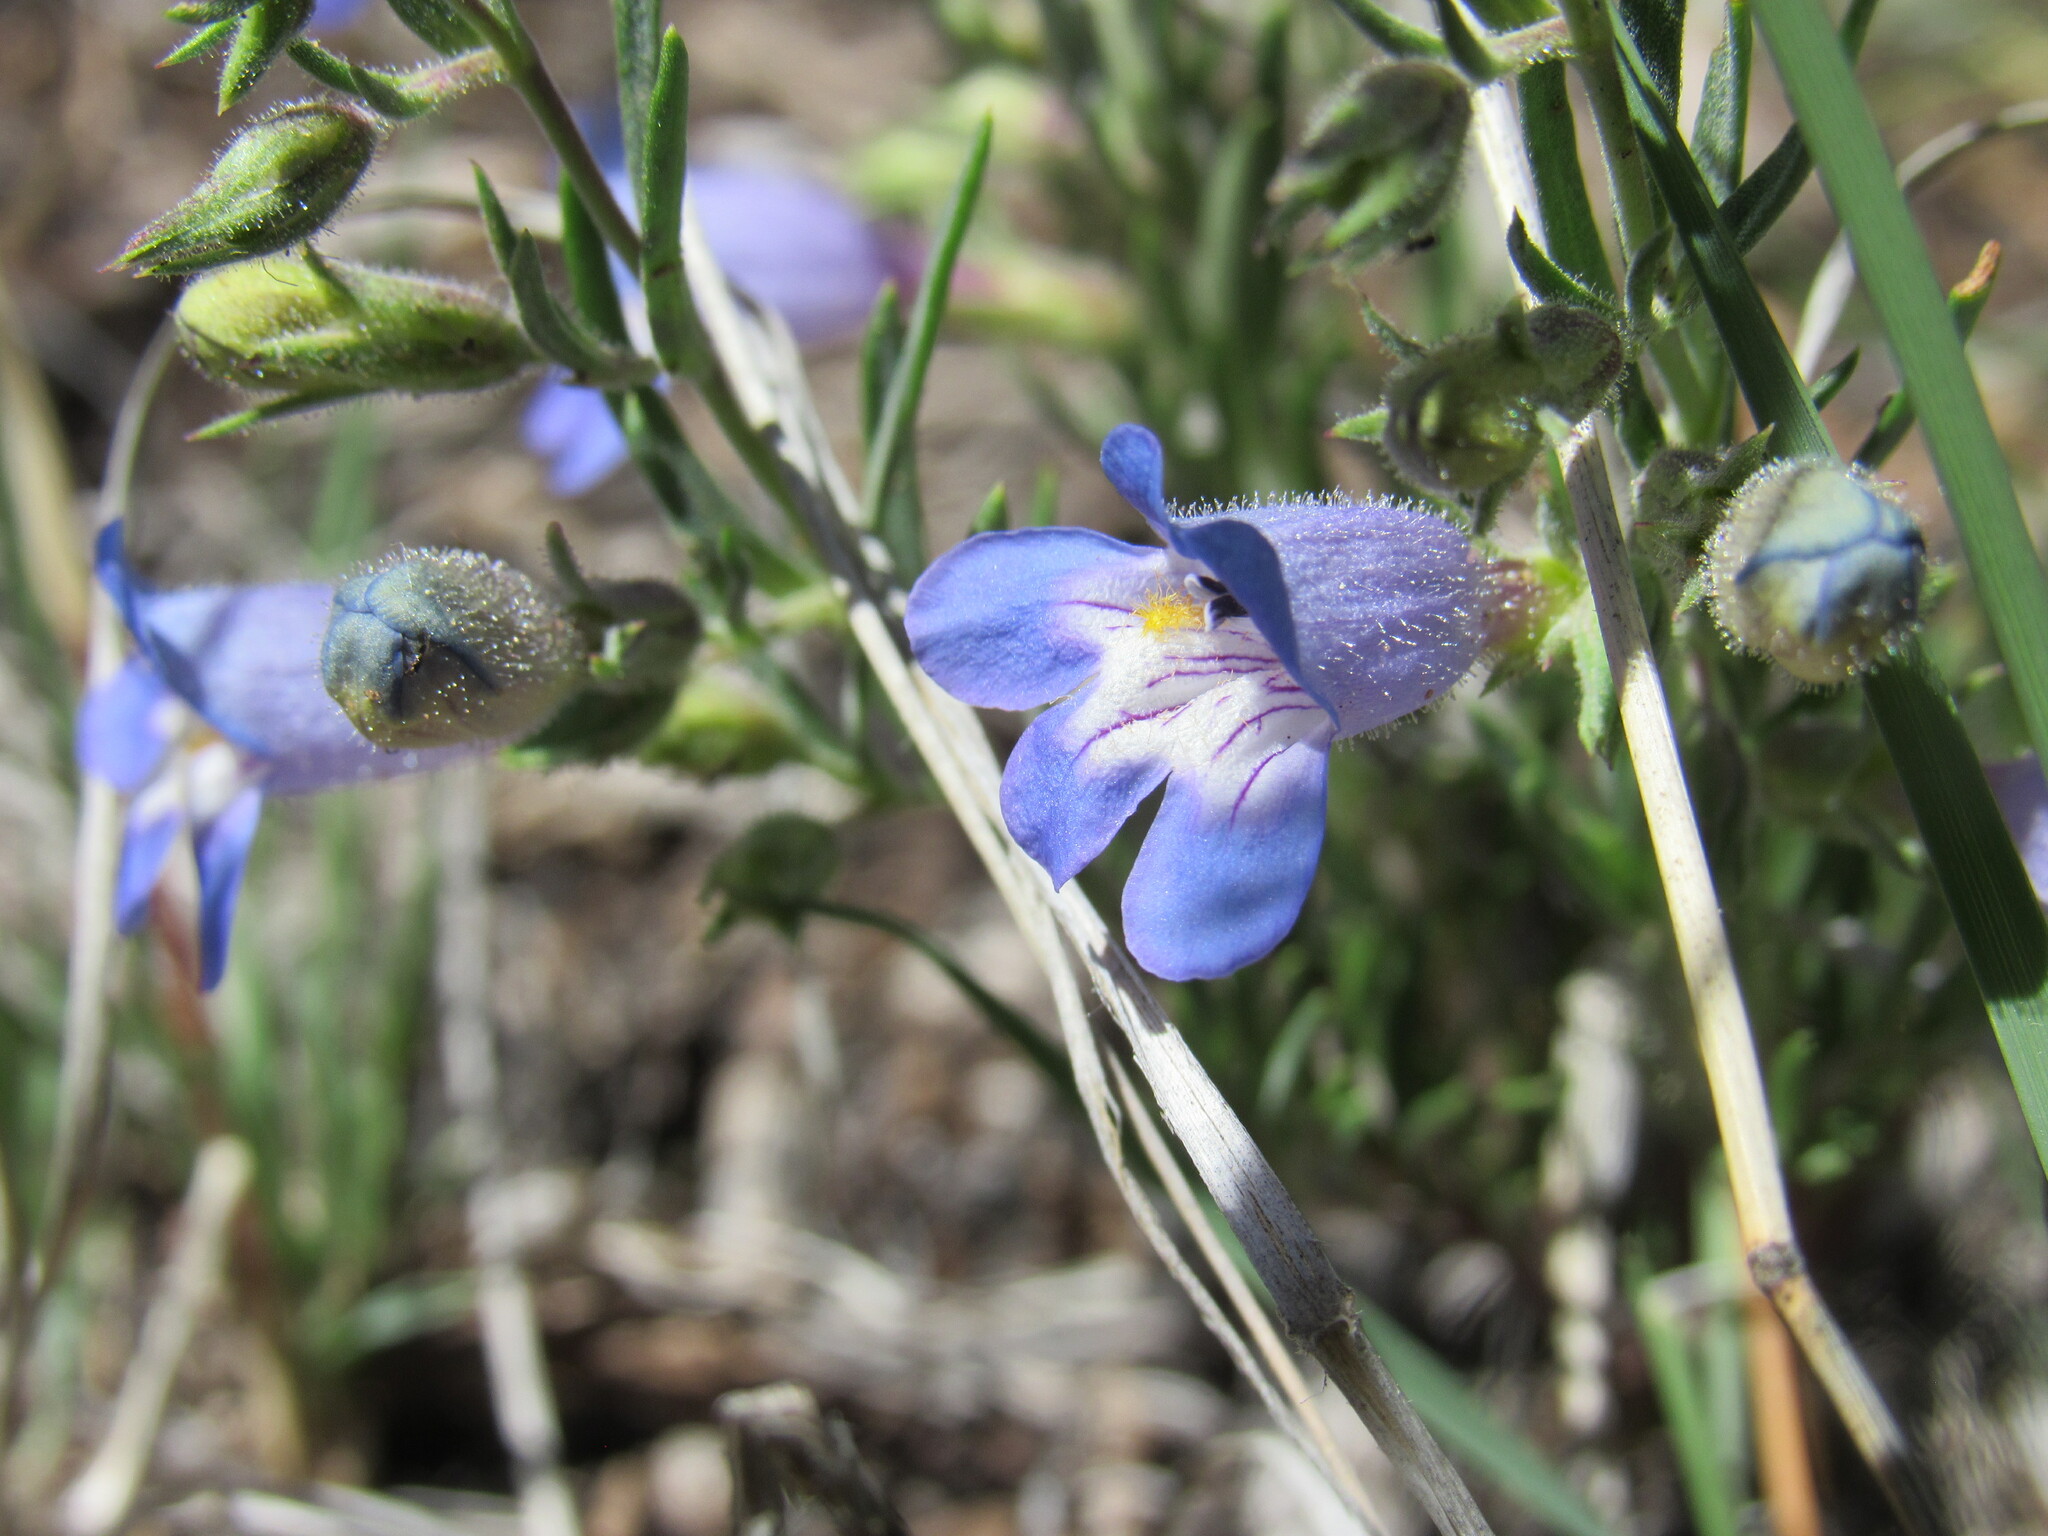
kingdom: Plantae
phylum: Tracheophyta
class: Magnoliopsida
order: Lamiales
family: Plantaginaceae
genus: Penstemon
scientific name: Penstemon linarioides
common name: Siler's penstemon
